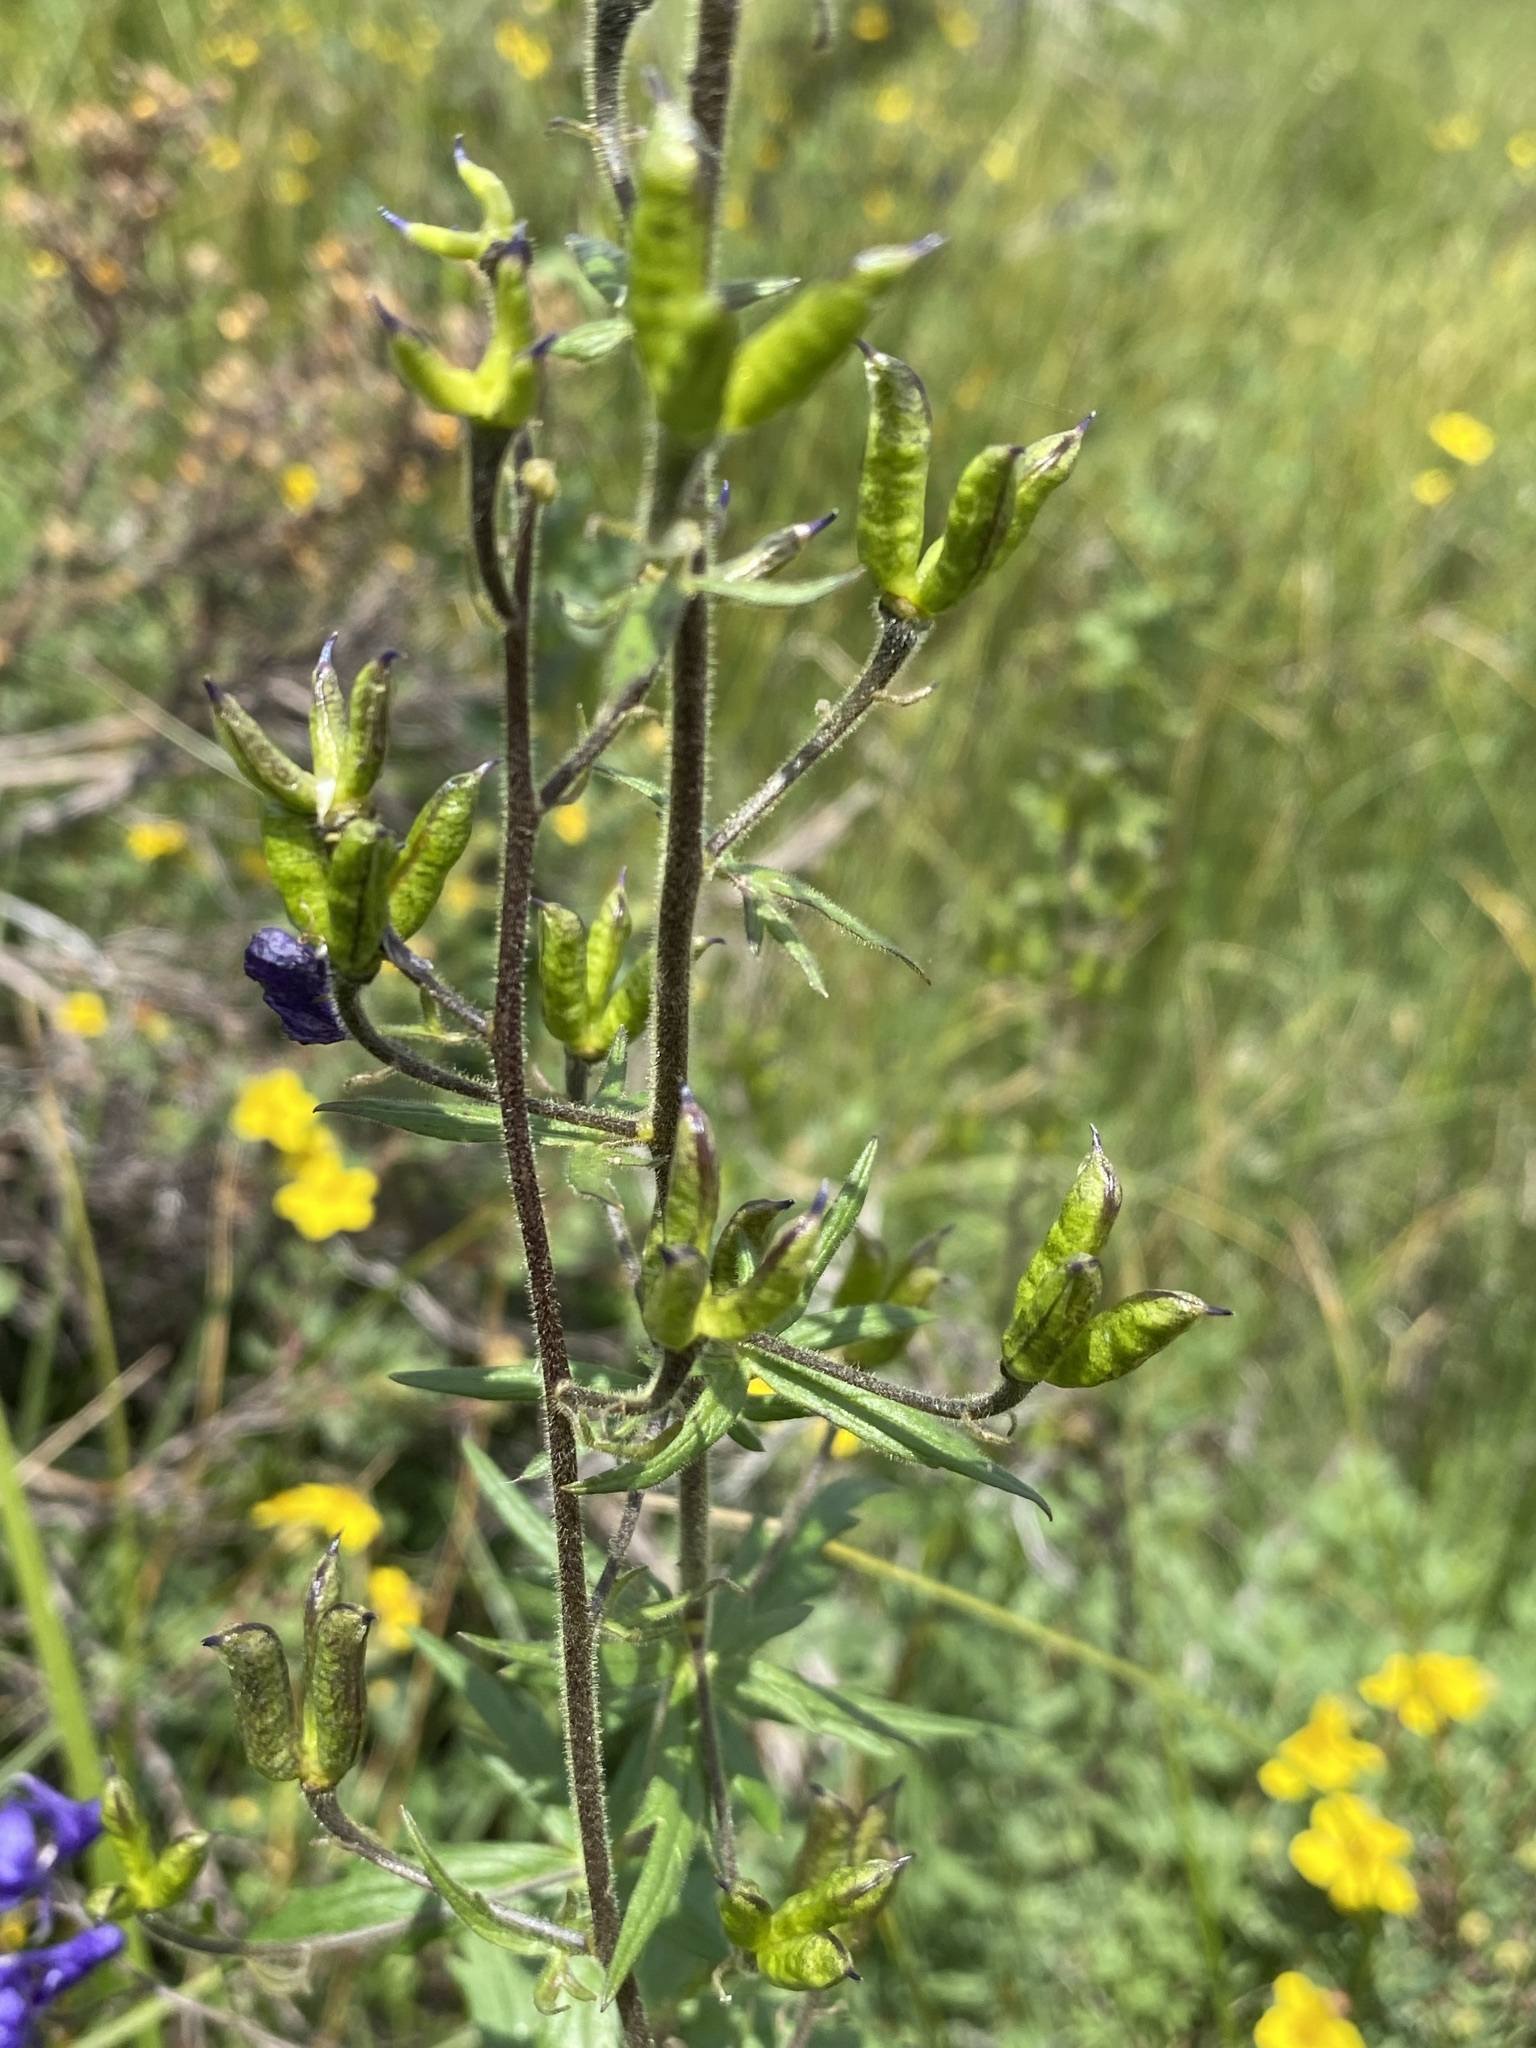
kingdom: Plantae
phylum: Tracheophyta
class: Magnoliopsida
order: Ranunculales
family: Ranunculaceae
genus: Aconitum
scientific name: Aconitum columbianum
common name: Columbia aconite
